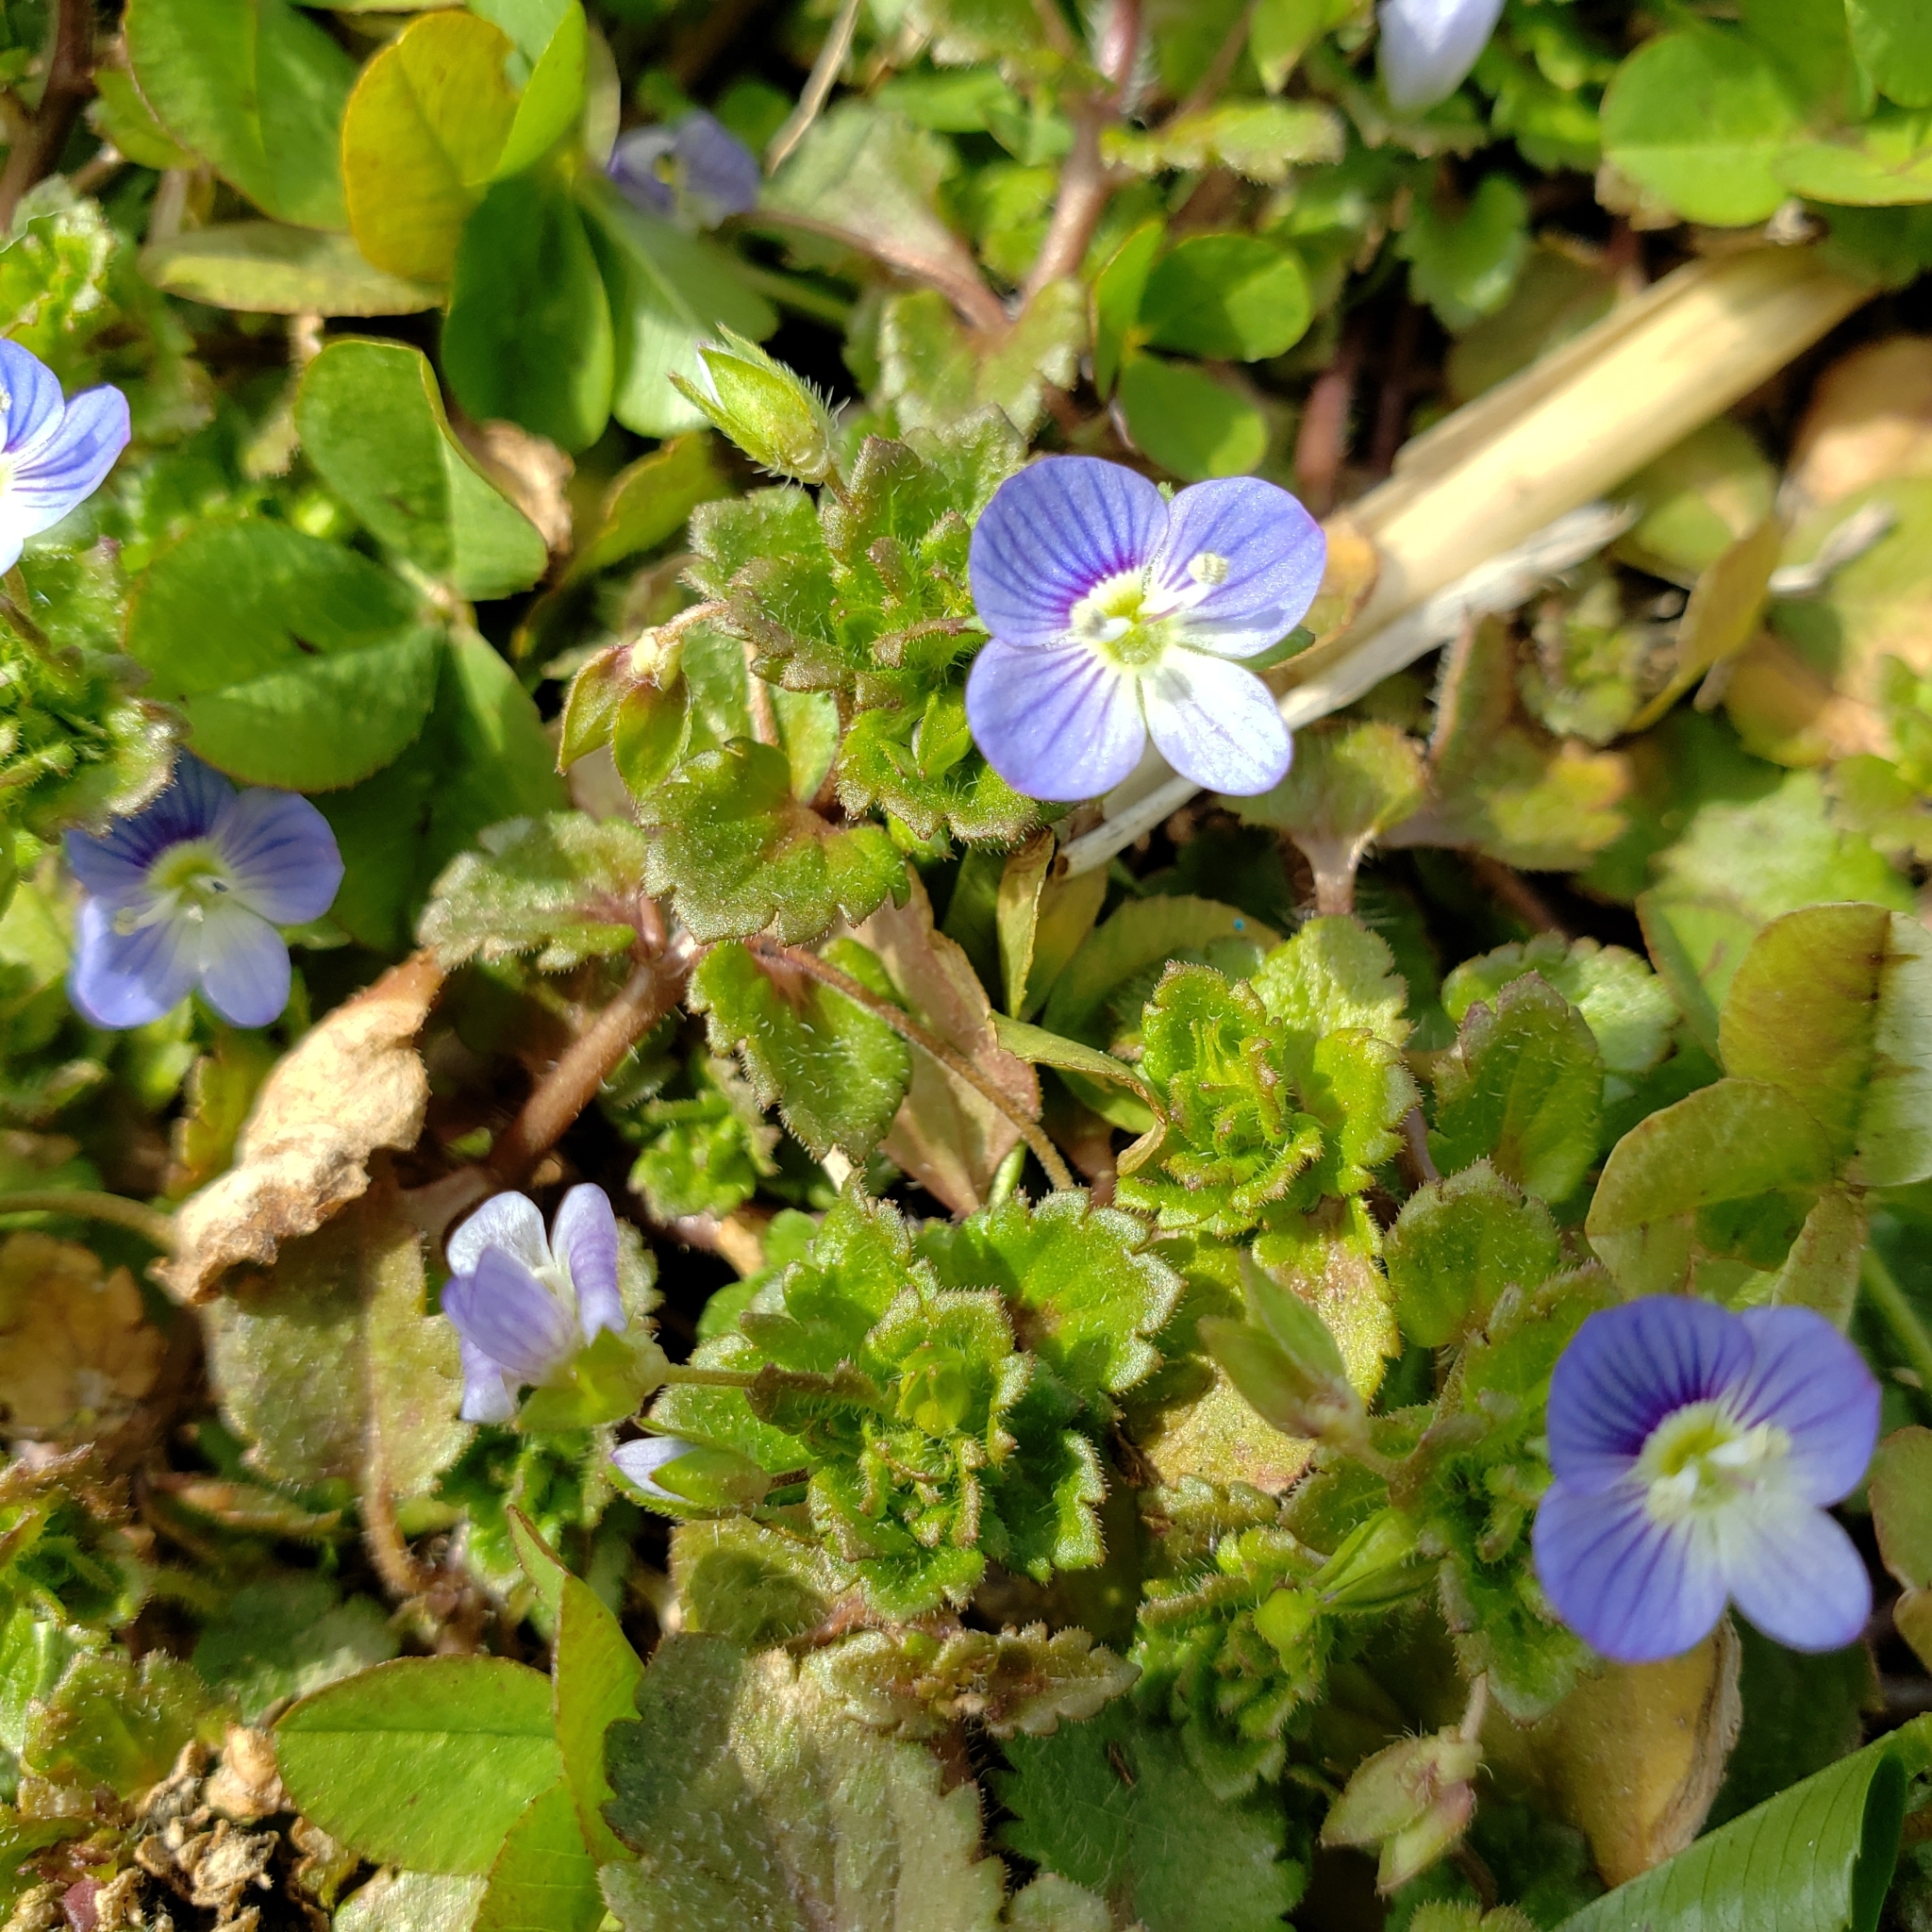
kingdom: Plantae
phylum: Tracheophyta
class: Magnoliopsida
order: Lamiales
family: Plantaginaceae
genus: Veronica
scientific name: Veronica persica
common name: Common field-speedwell
